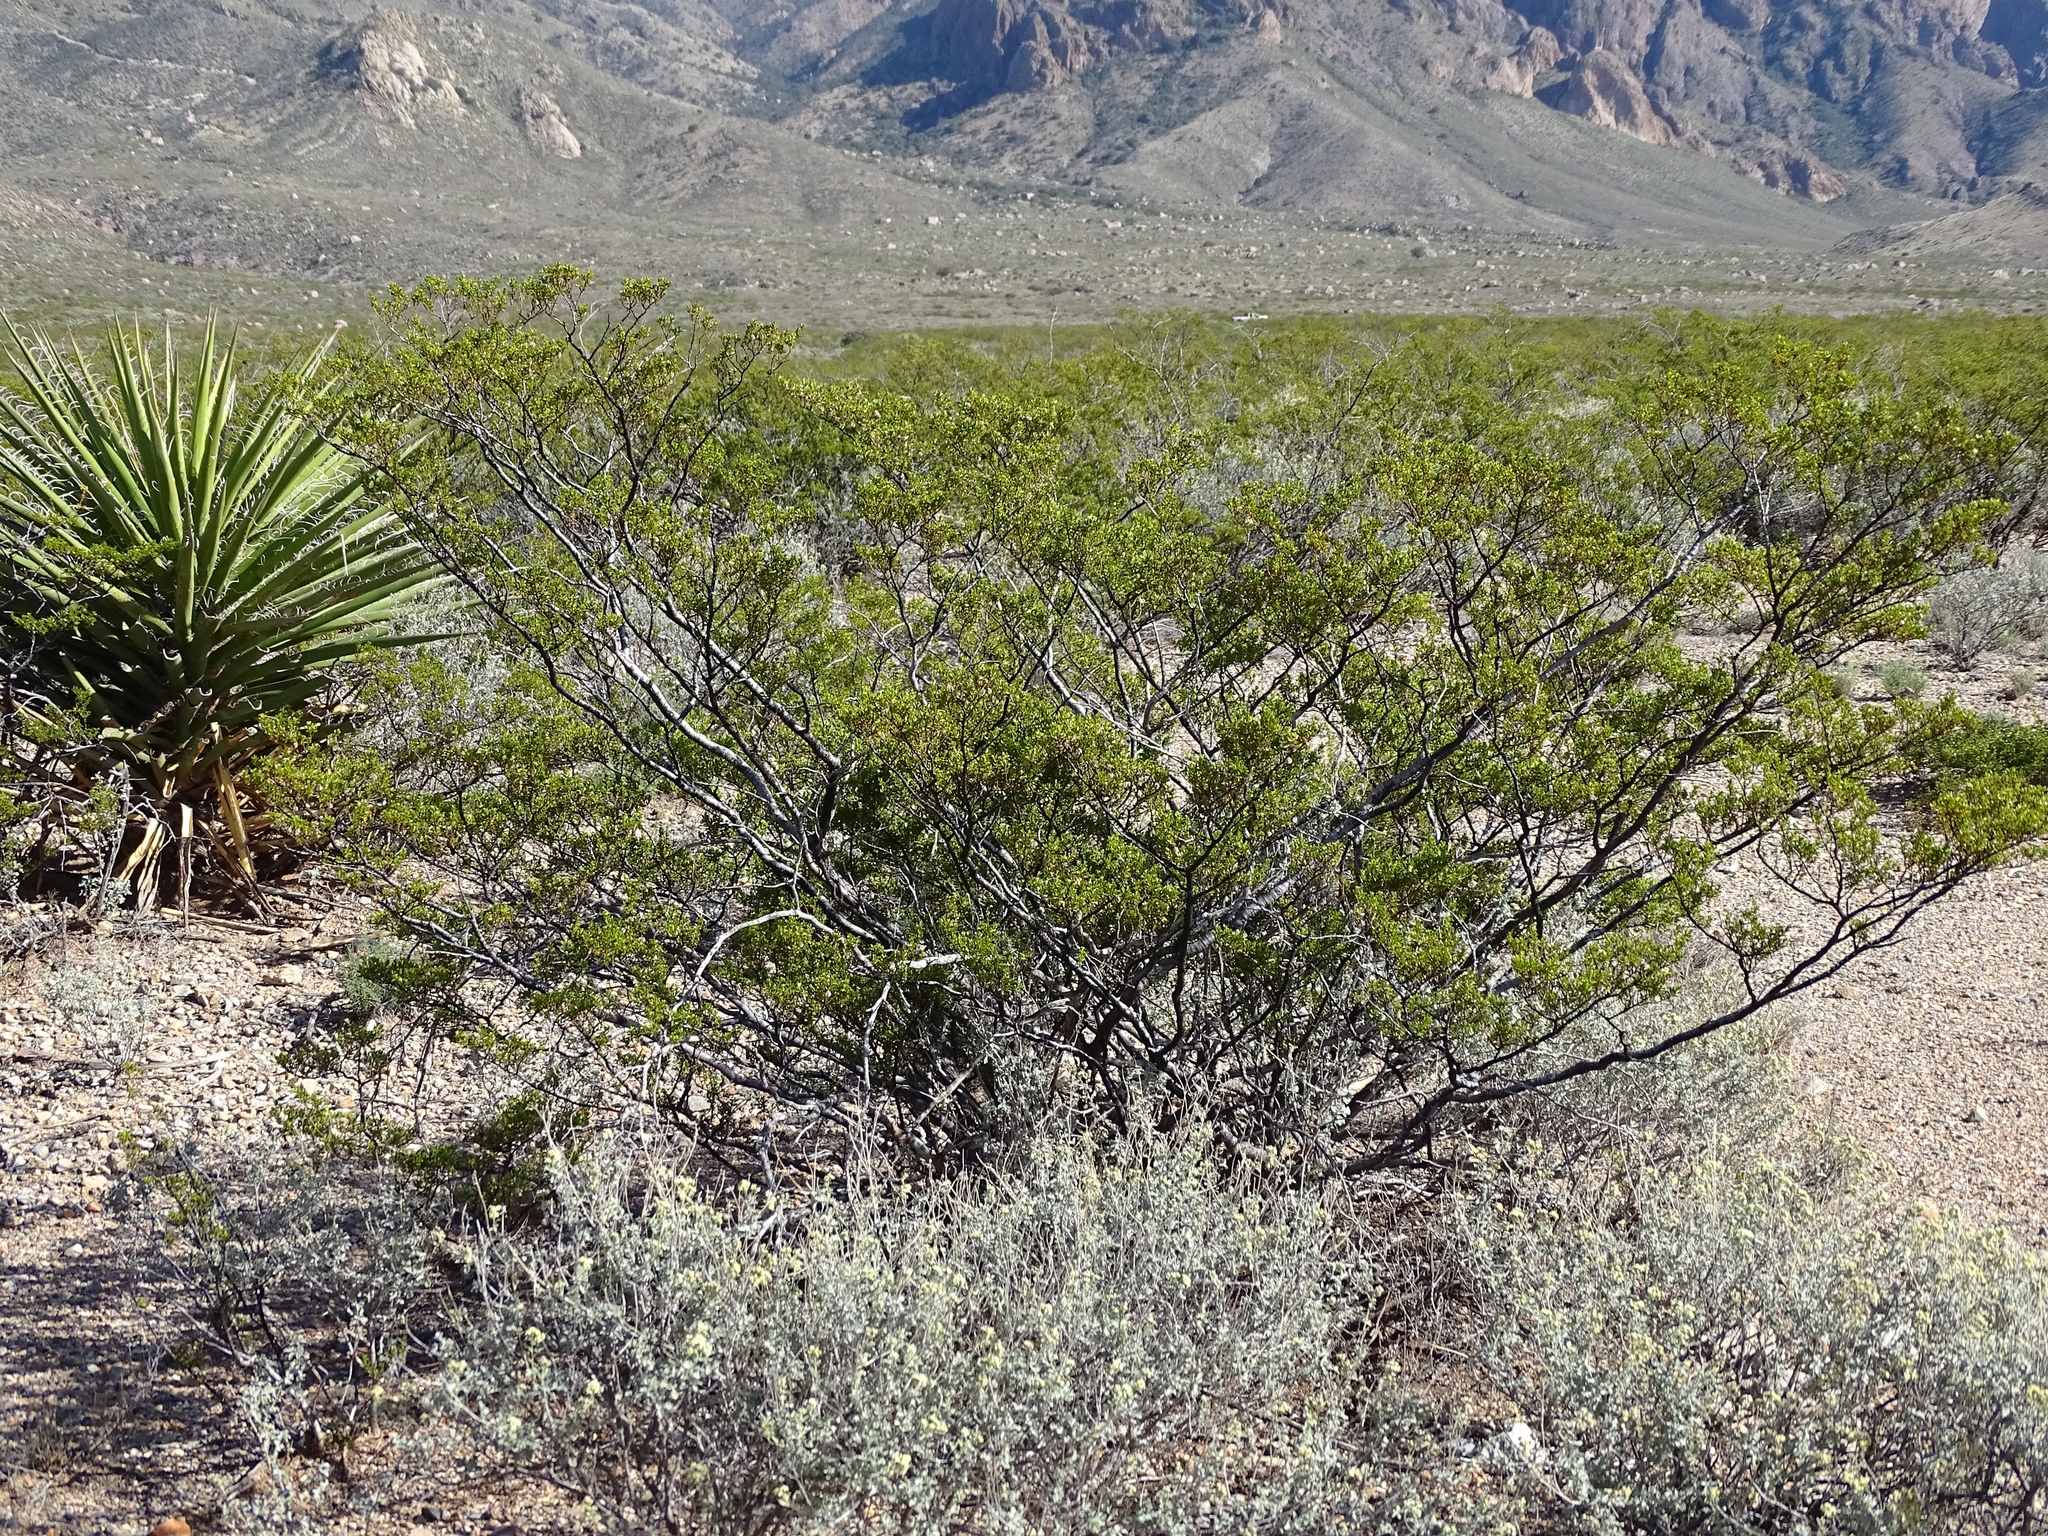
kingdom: Plantae
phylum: Tracheophyta
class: Magnoliopsida
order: Zygophyllales
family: Zygophyllaceae
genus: Larrea
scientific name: Larrea tridentata
